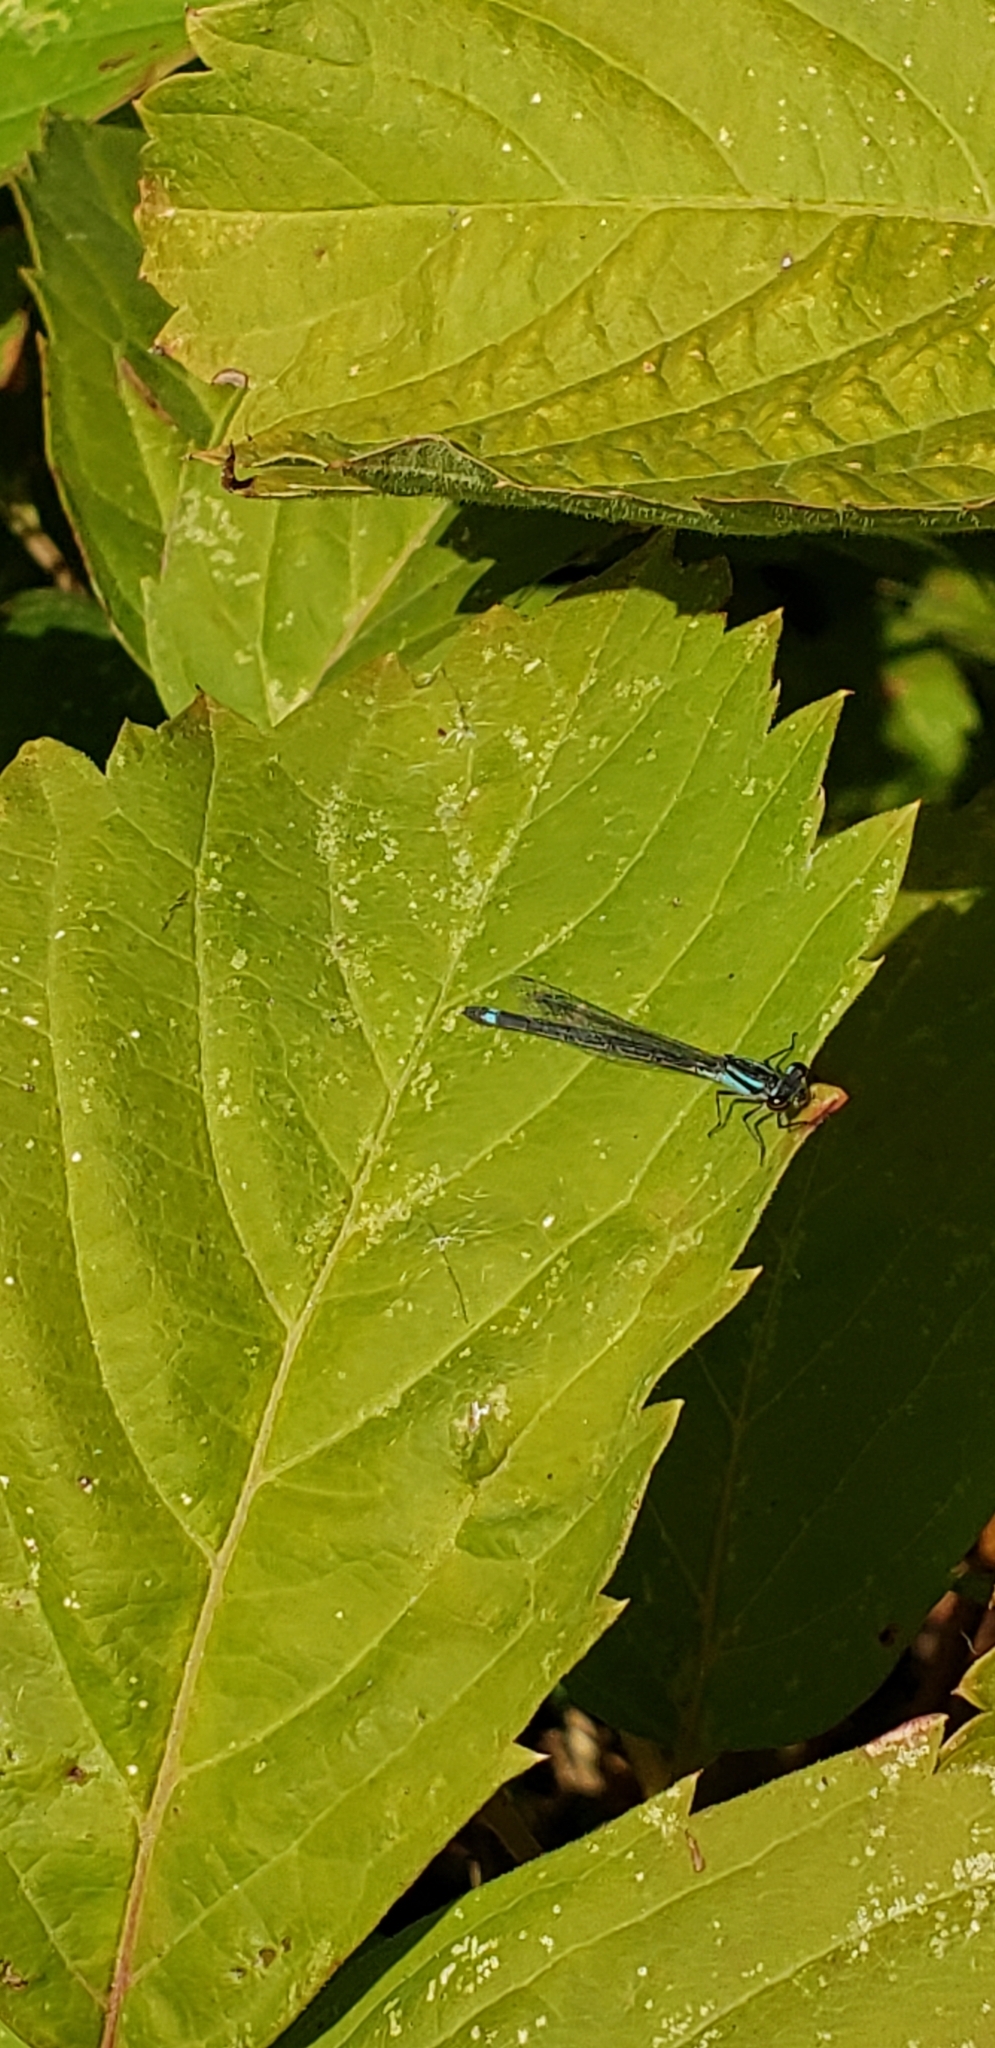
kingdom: Animalia
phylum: Arthropoda
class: Insecta
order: Odonata
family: Coenagrionidae
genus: Enallagma
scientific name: Enallagma geminatum
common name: Skimming bluet
